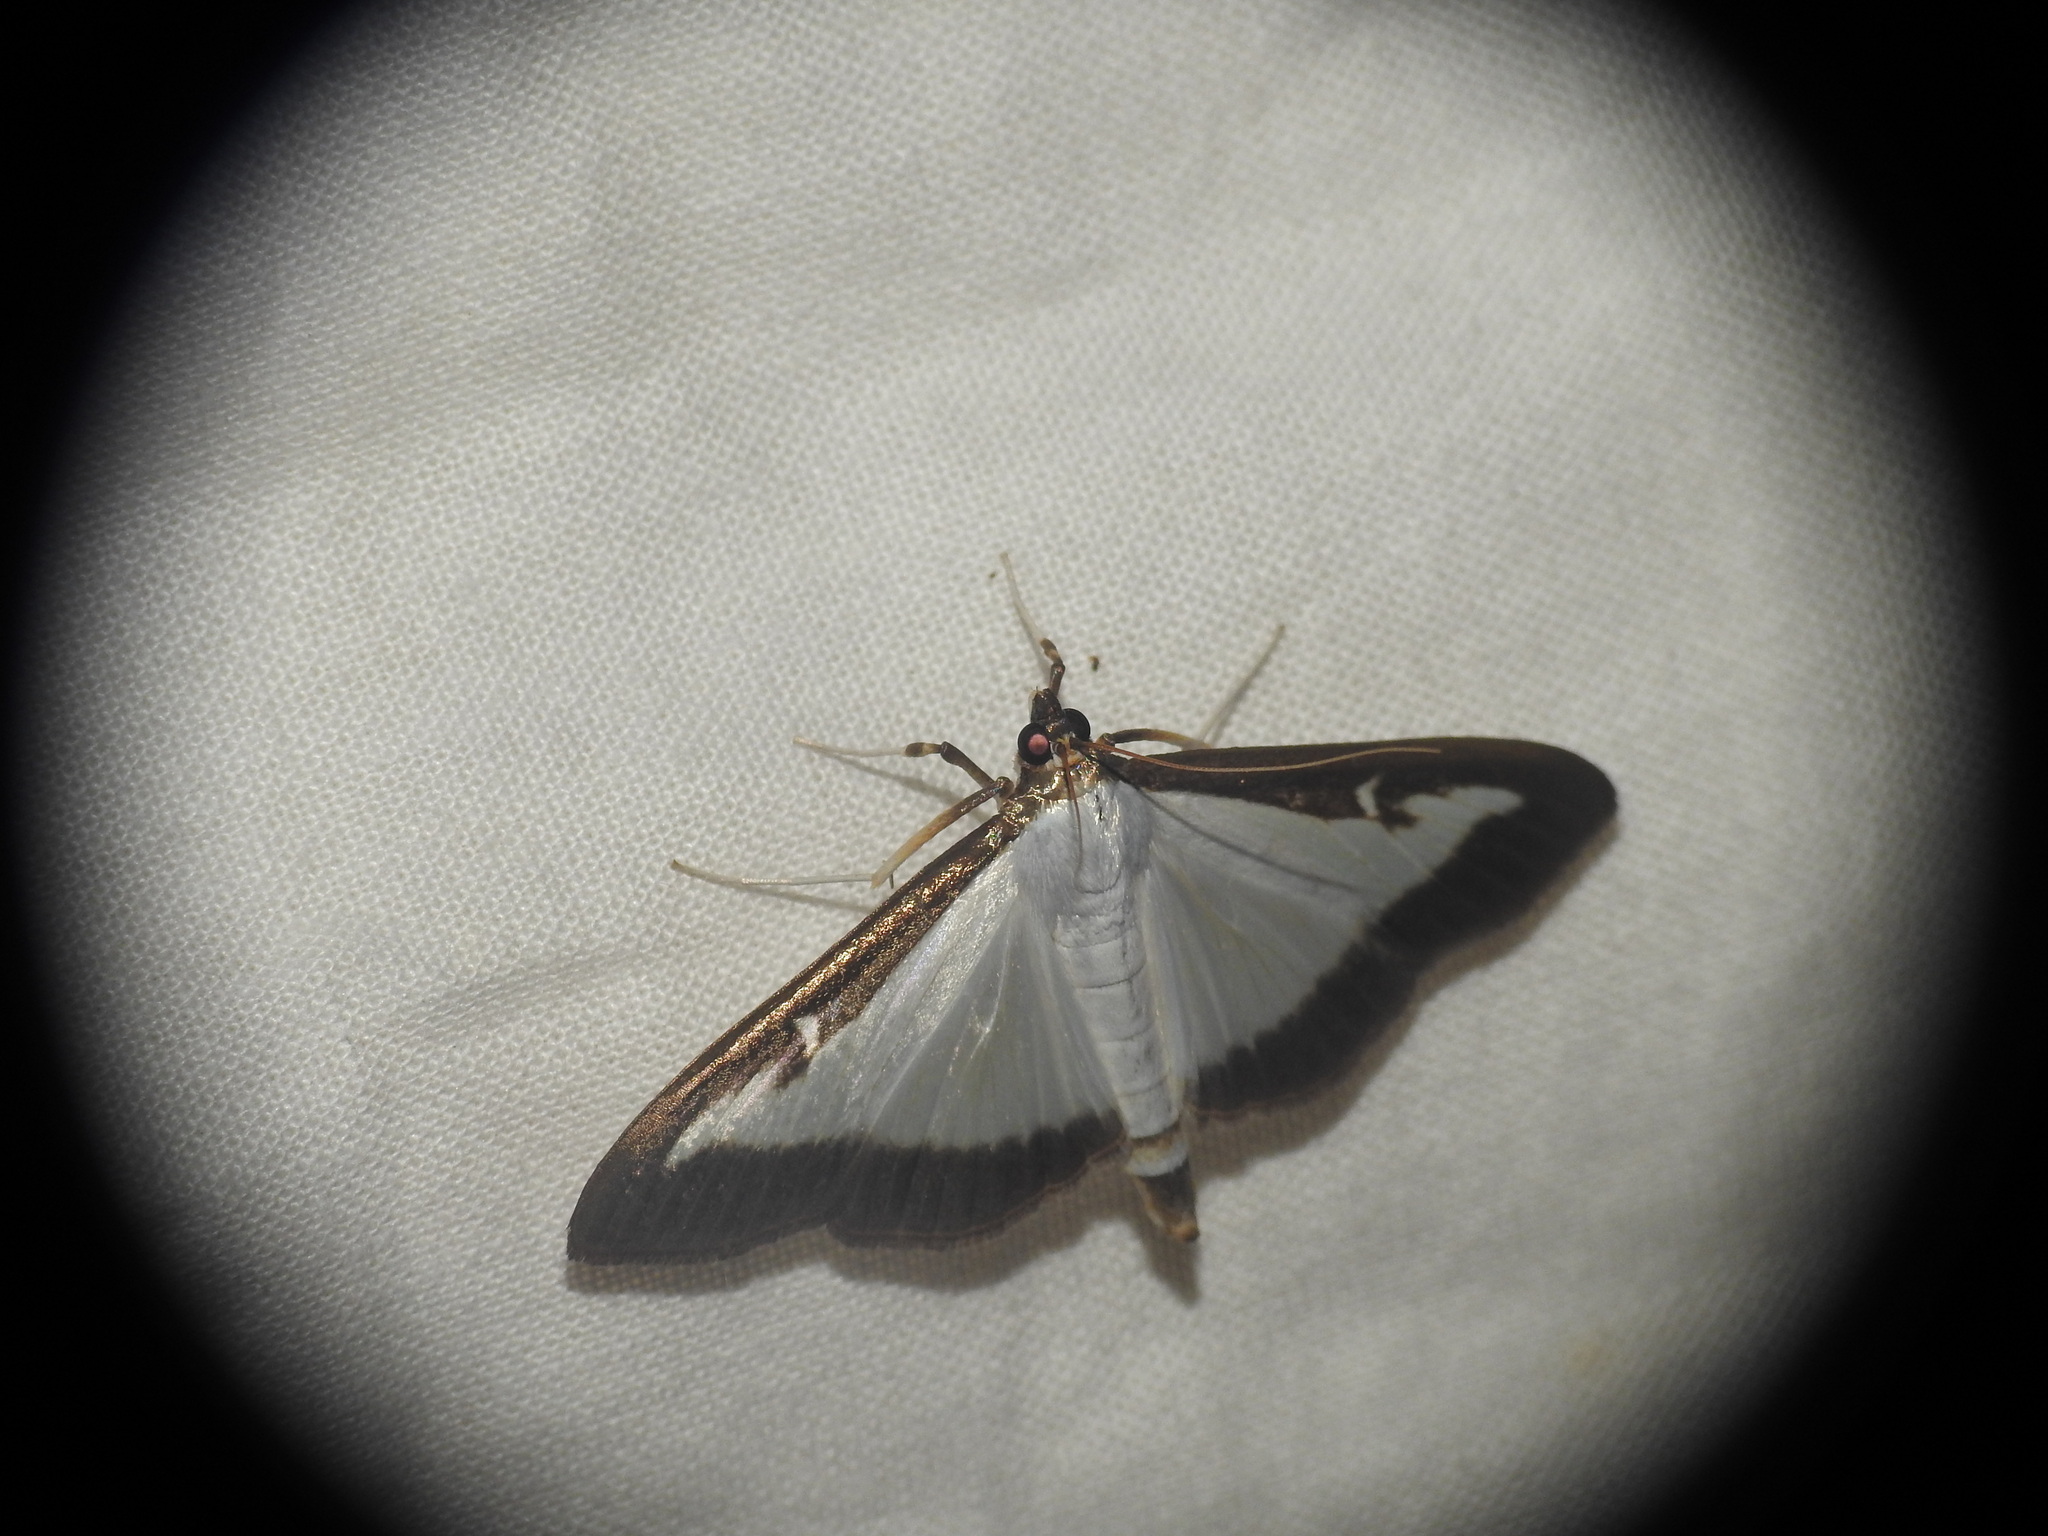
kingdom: Animalia
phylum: Arthropoda
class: Insecta
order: Lepidoptera
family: Crambidae
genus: Cydalima
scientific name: Cydalima perspectalis
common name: Box tree moth
